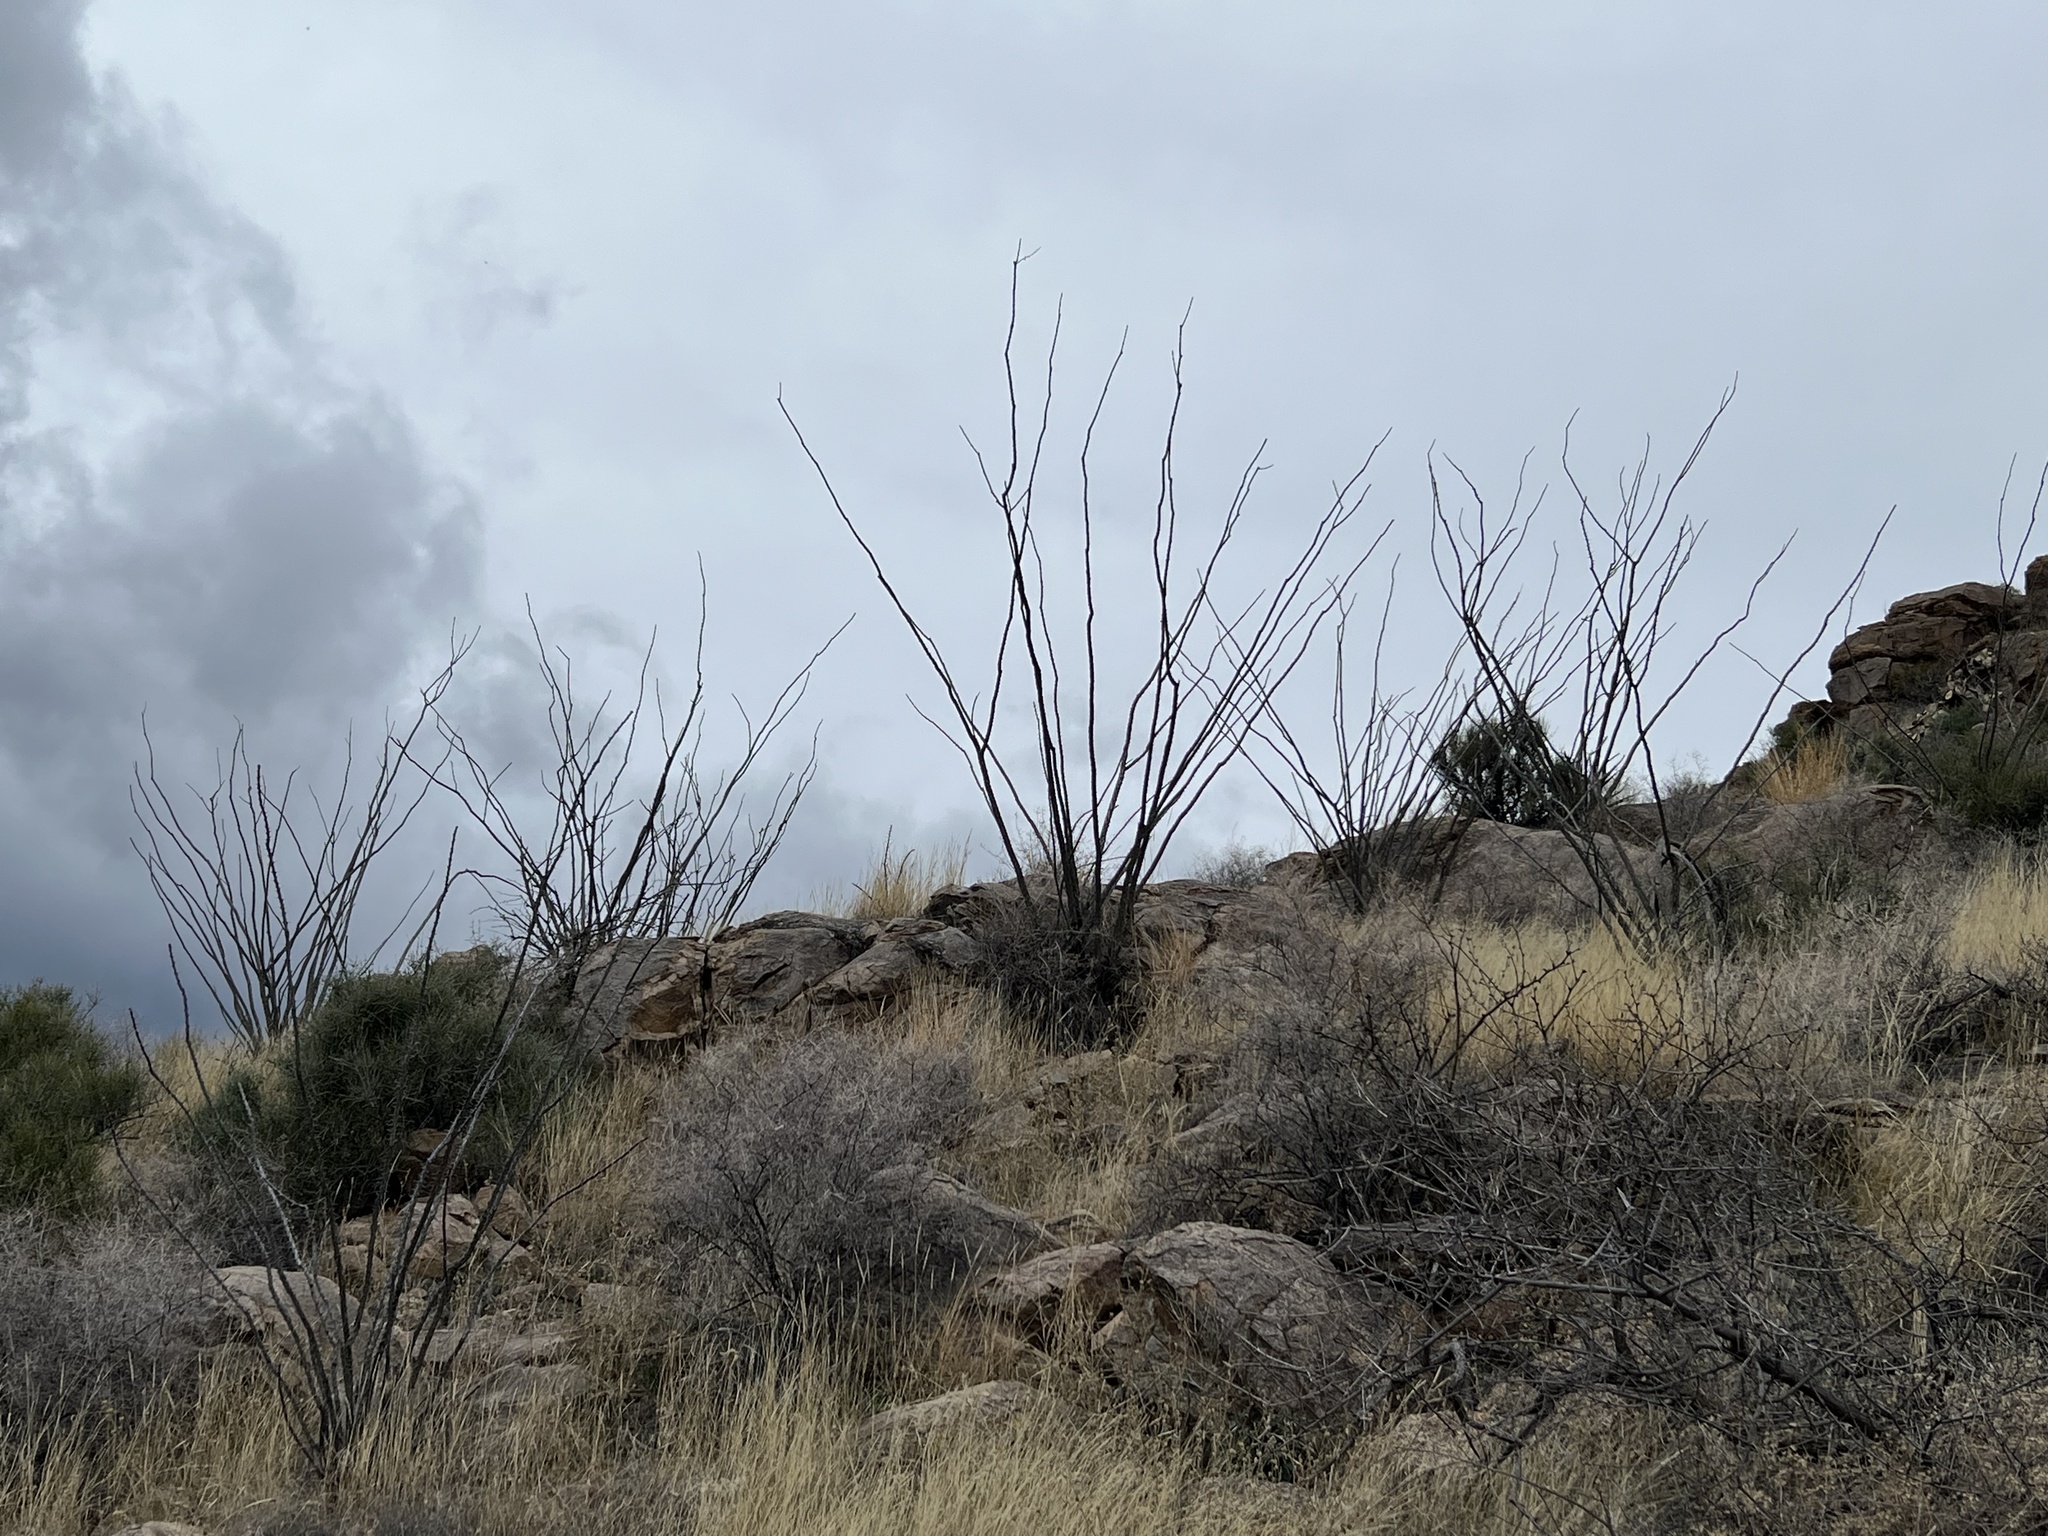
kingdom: Plantae
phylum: Tracheophyta
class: Magnoliopsida
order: Ericales
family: Fouquieriaceae
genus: Fouquieria
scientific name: Fouquieria splendens
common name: Vine-cactus
